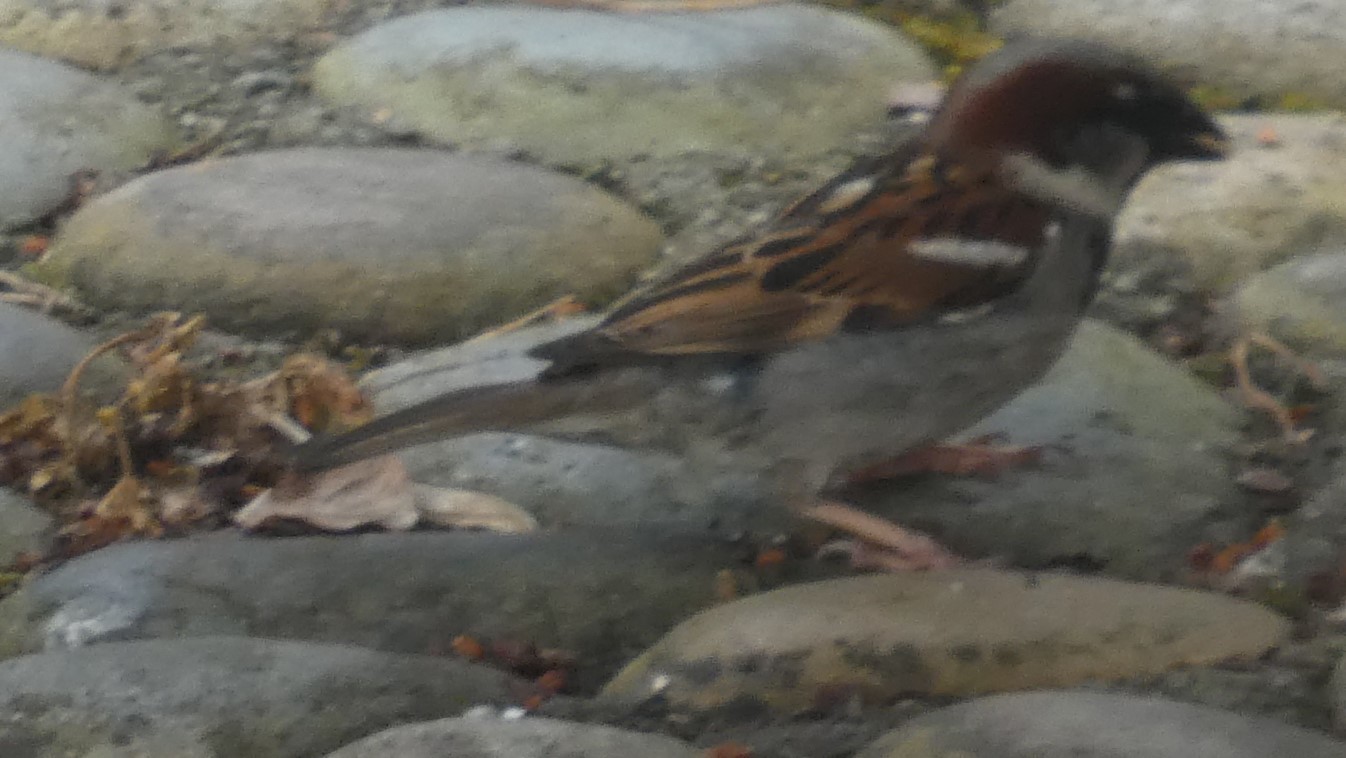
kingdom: Animalia
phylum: Chordata
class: Aves
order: Passeriformes
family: Passeridae
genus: Passer
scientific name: Passer domesticus
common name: House sparrow
